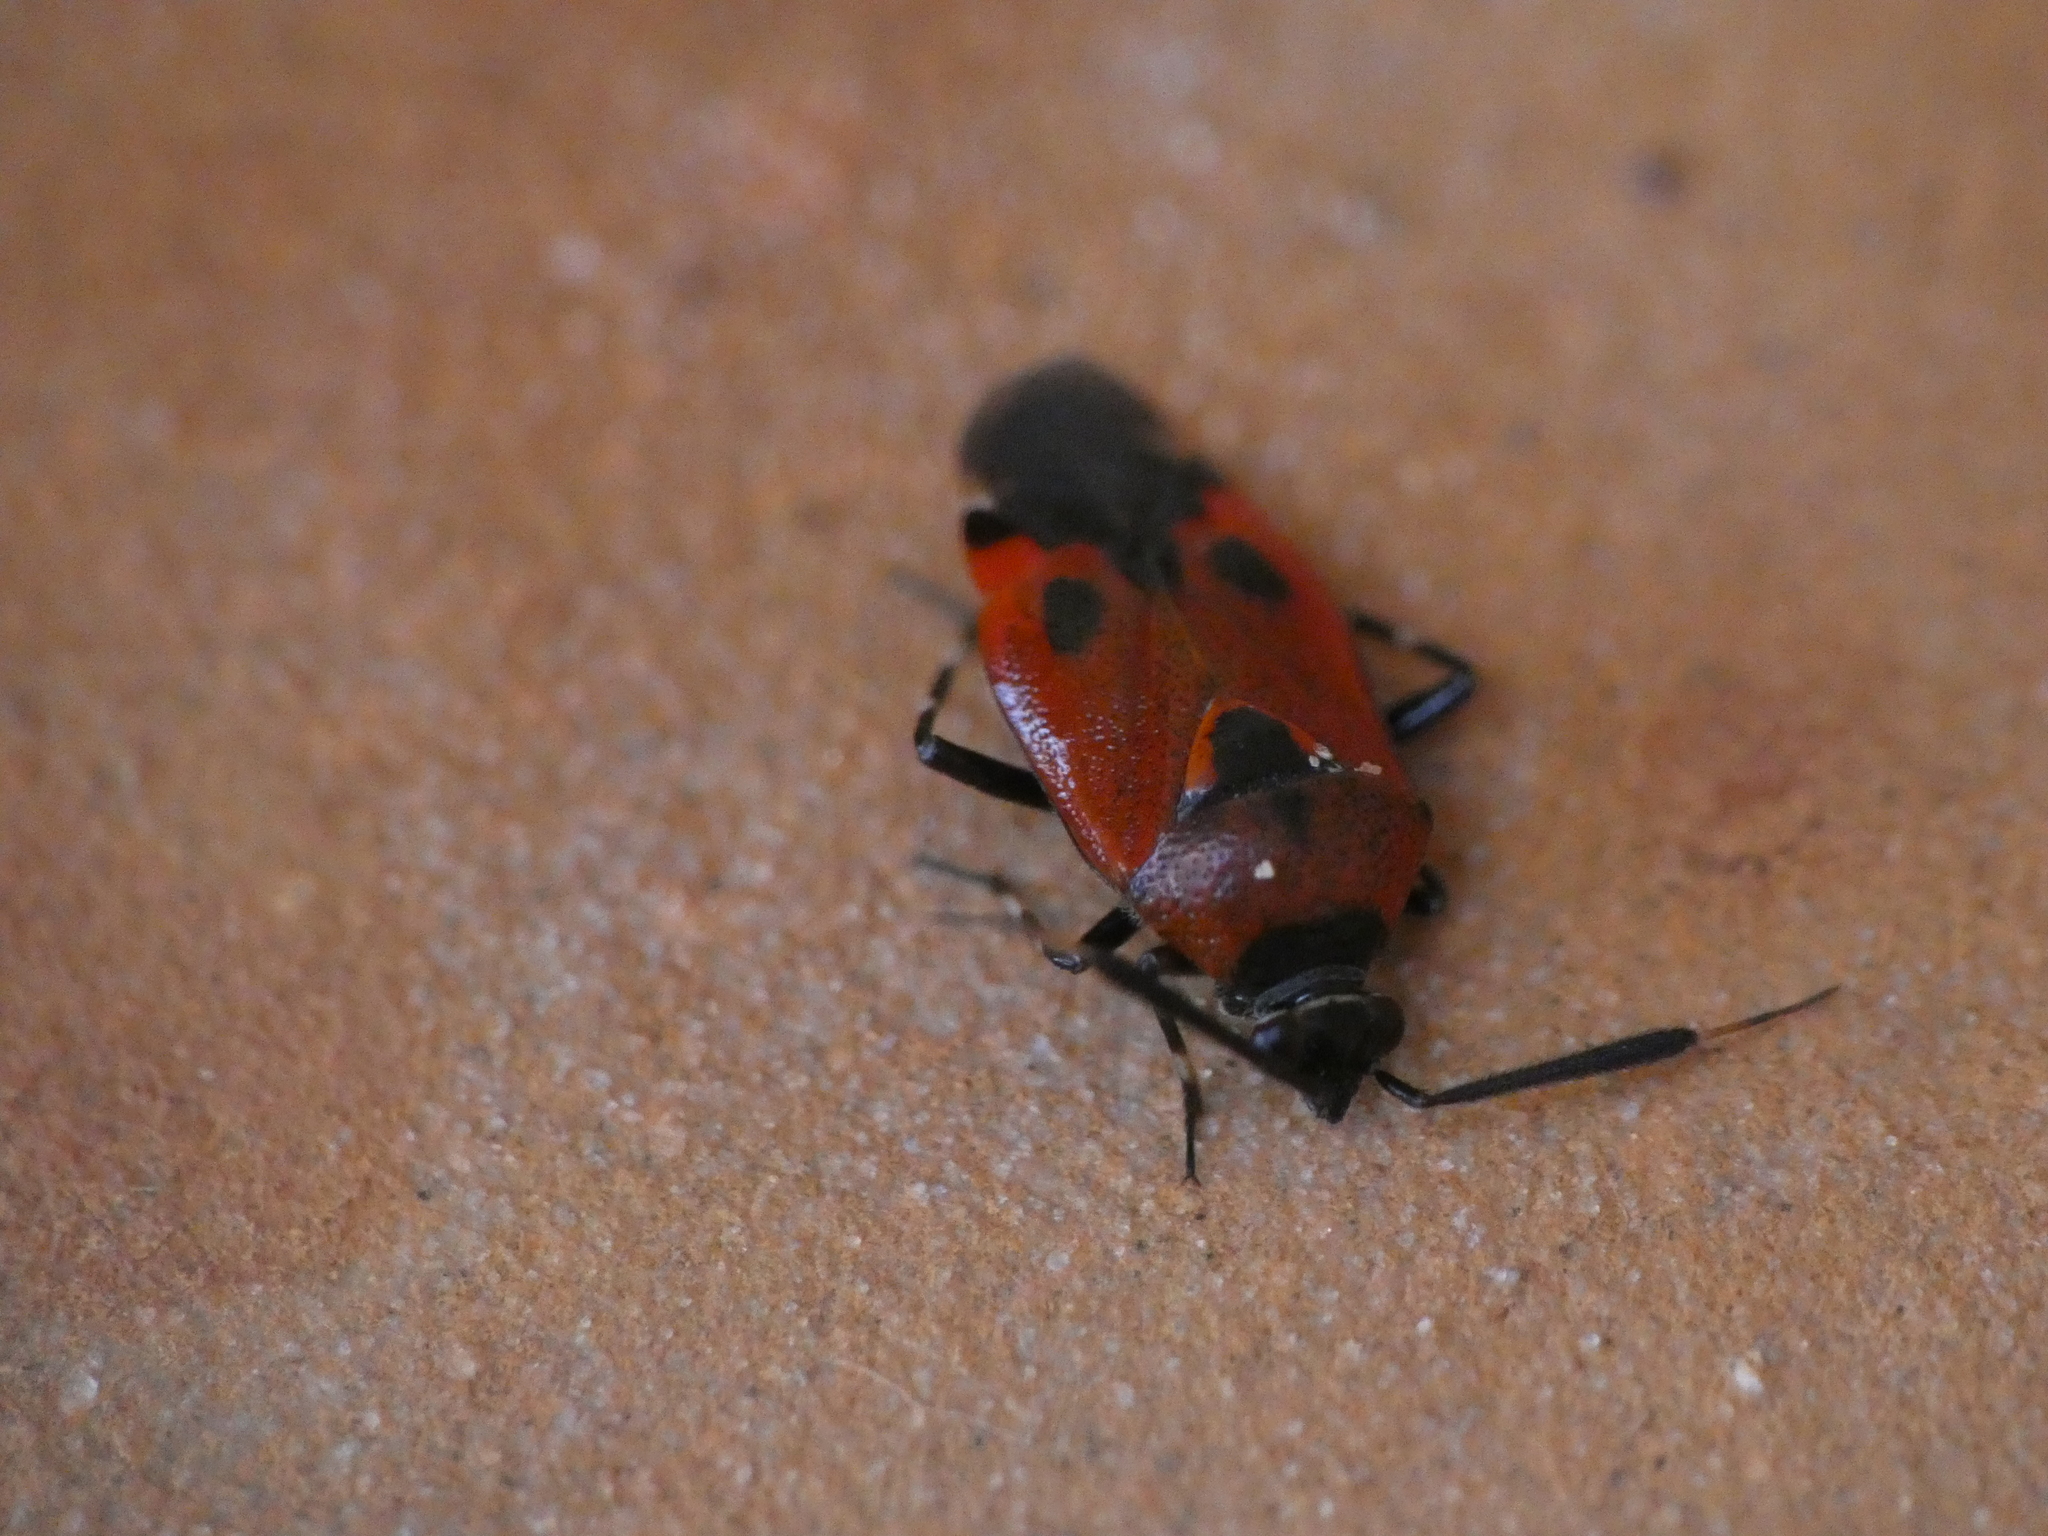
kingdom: Animalia
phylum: Arthropoda
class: Insecta
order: Hemiptera
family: Miridae
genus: Deraeocoris
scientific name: Deraeocoris punctum
